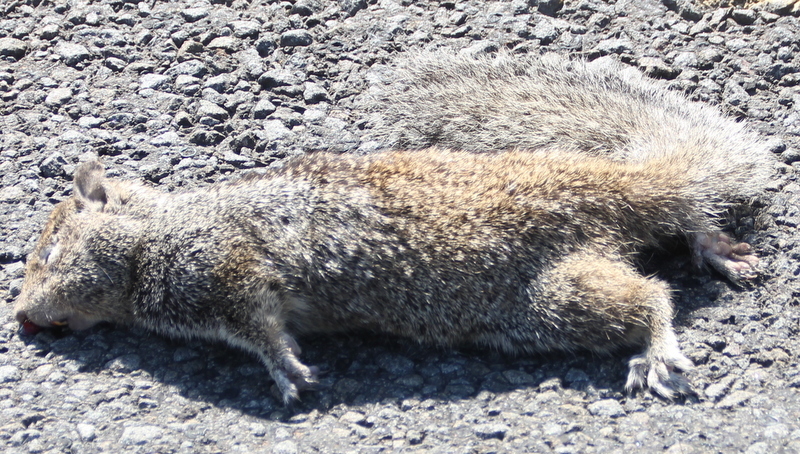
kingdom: Animalia
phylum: Chordata
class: Mammalia
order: Rodentia
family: Sciuridae
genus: Otospermophilus
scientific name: Otospermophilus beecheyi
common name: California ground squirrel
